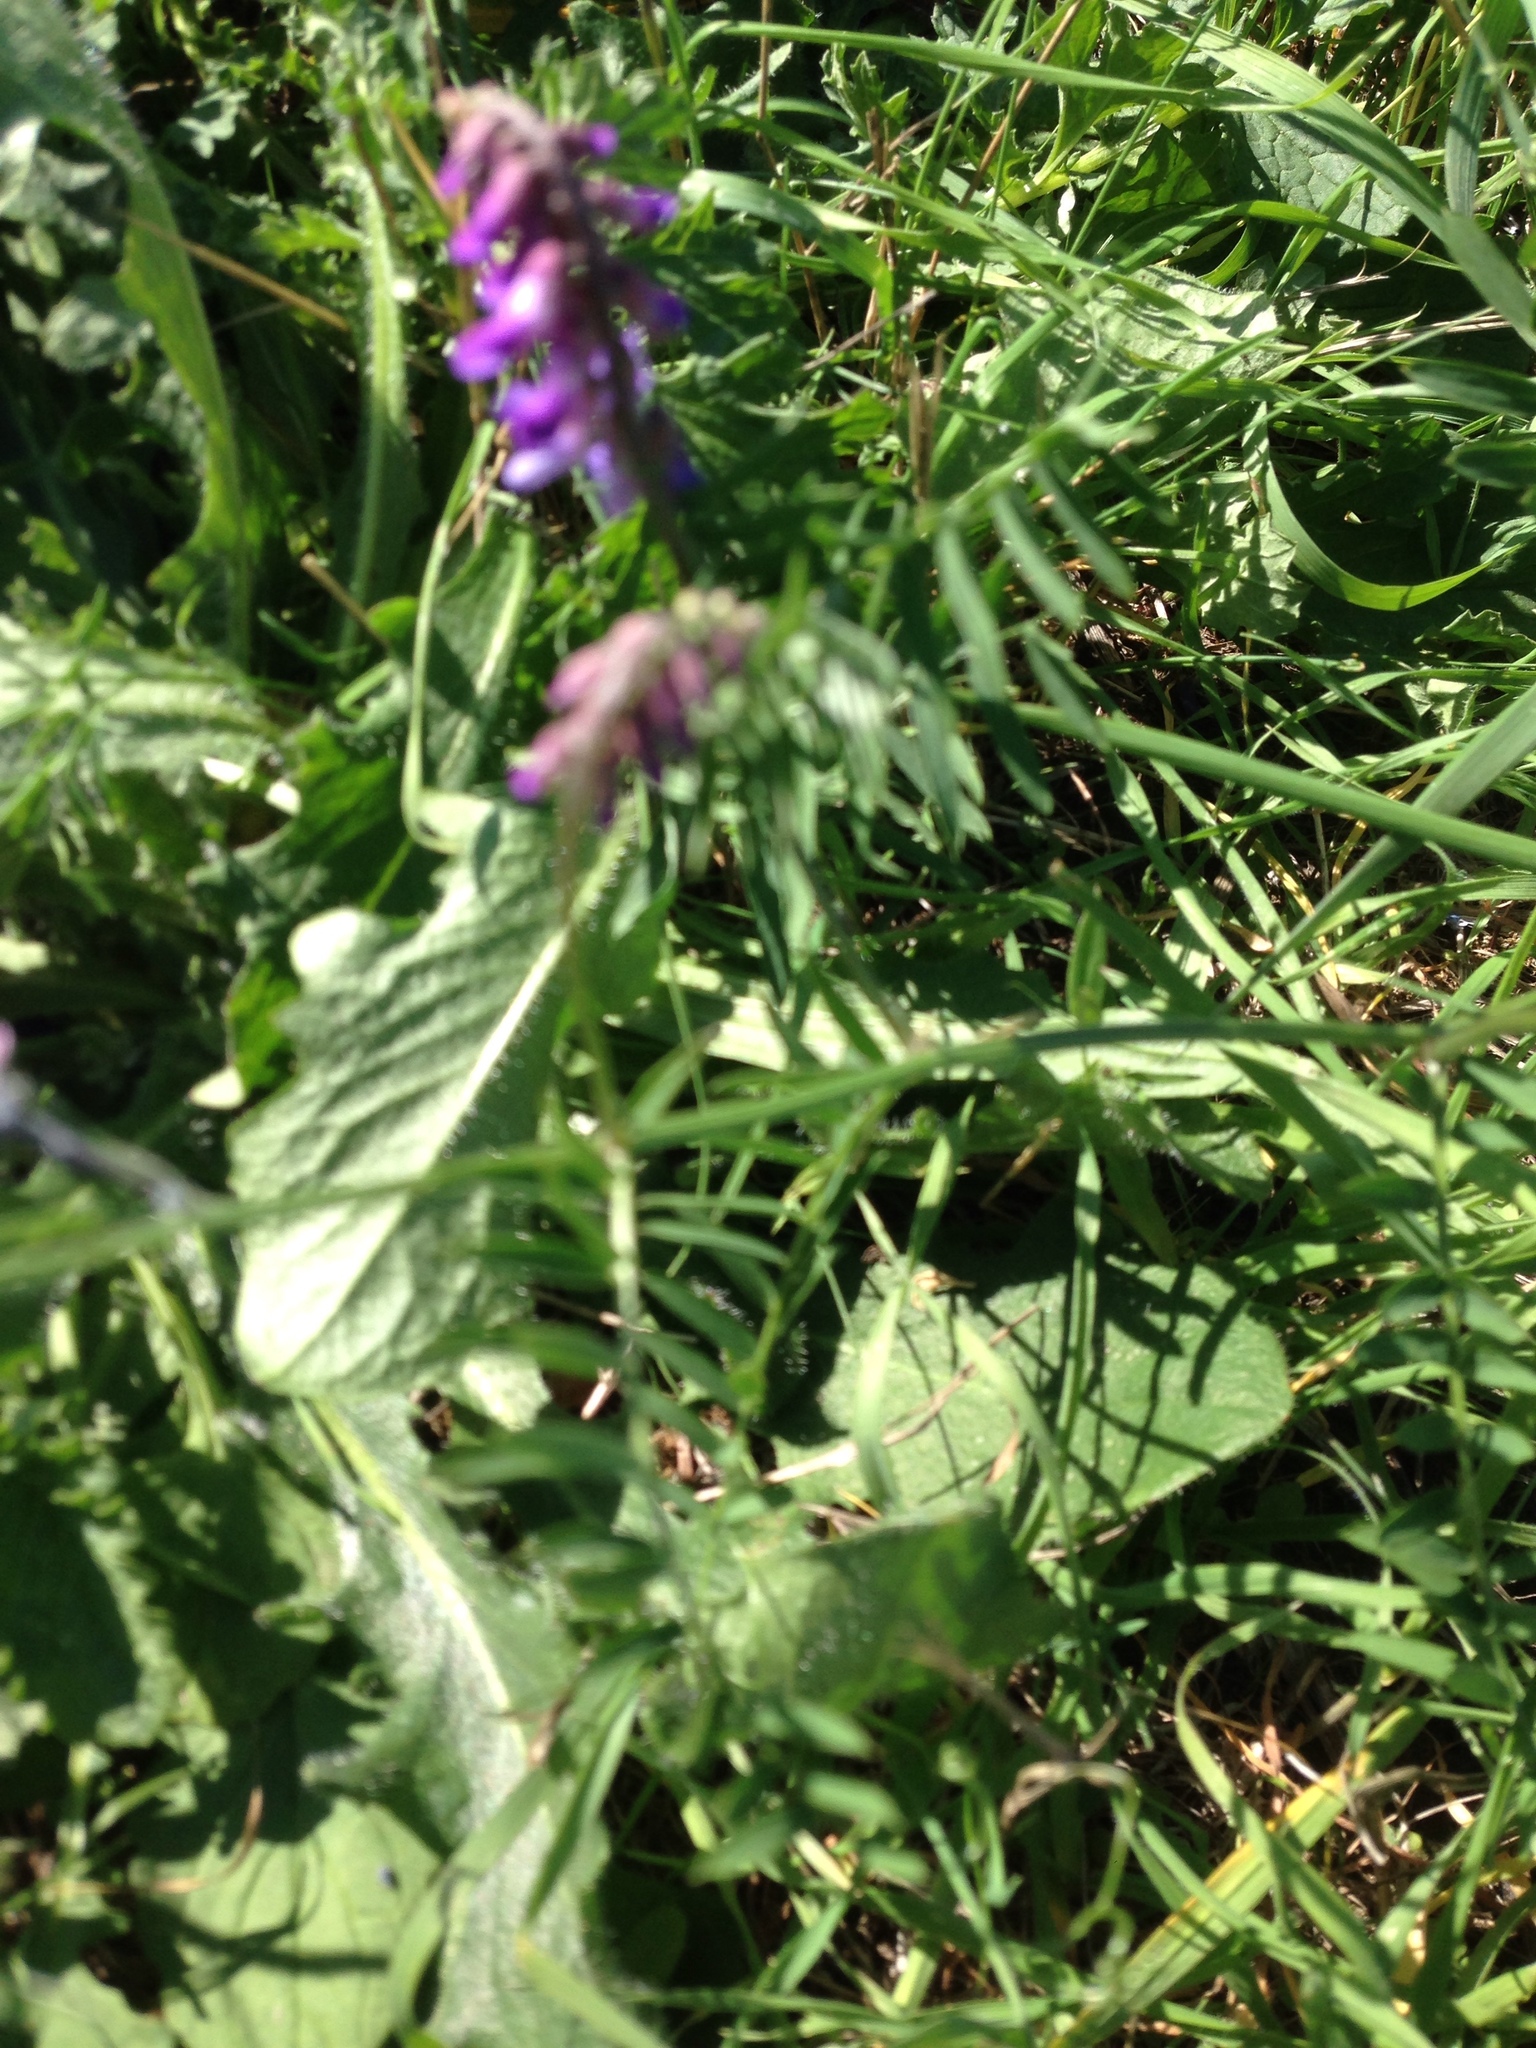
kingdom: Plantae
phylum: Tracheophyta
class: Magnoliopsida
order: Fabales
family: Fabaceae
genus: Vicia
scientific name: Vicia cracca
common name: Bird vetch
